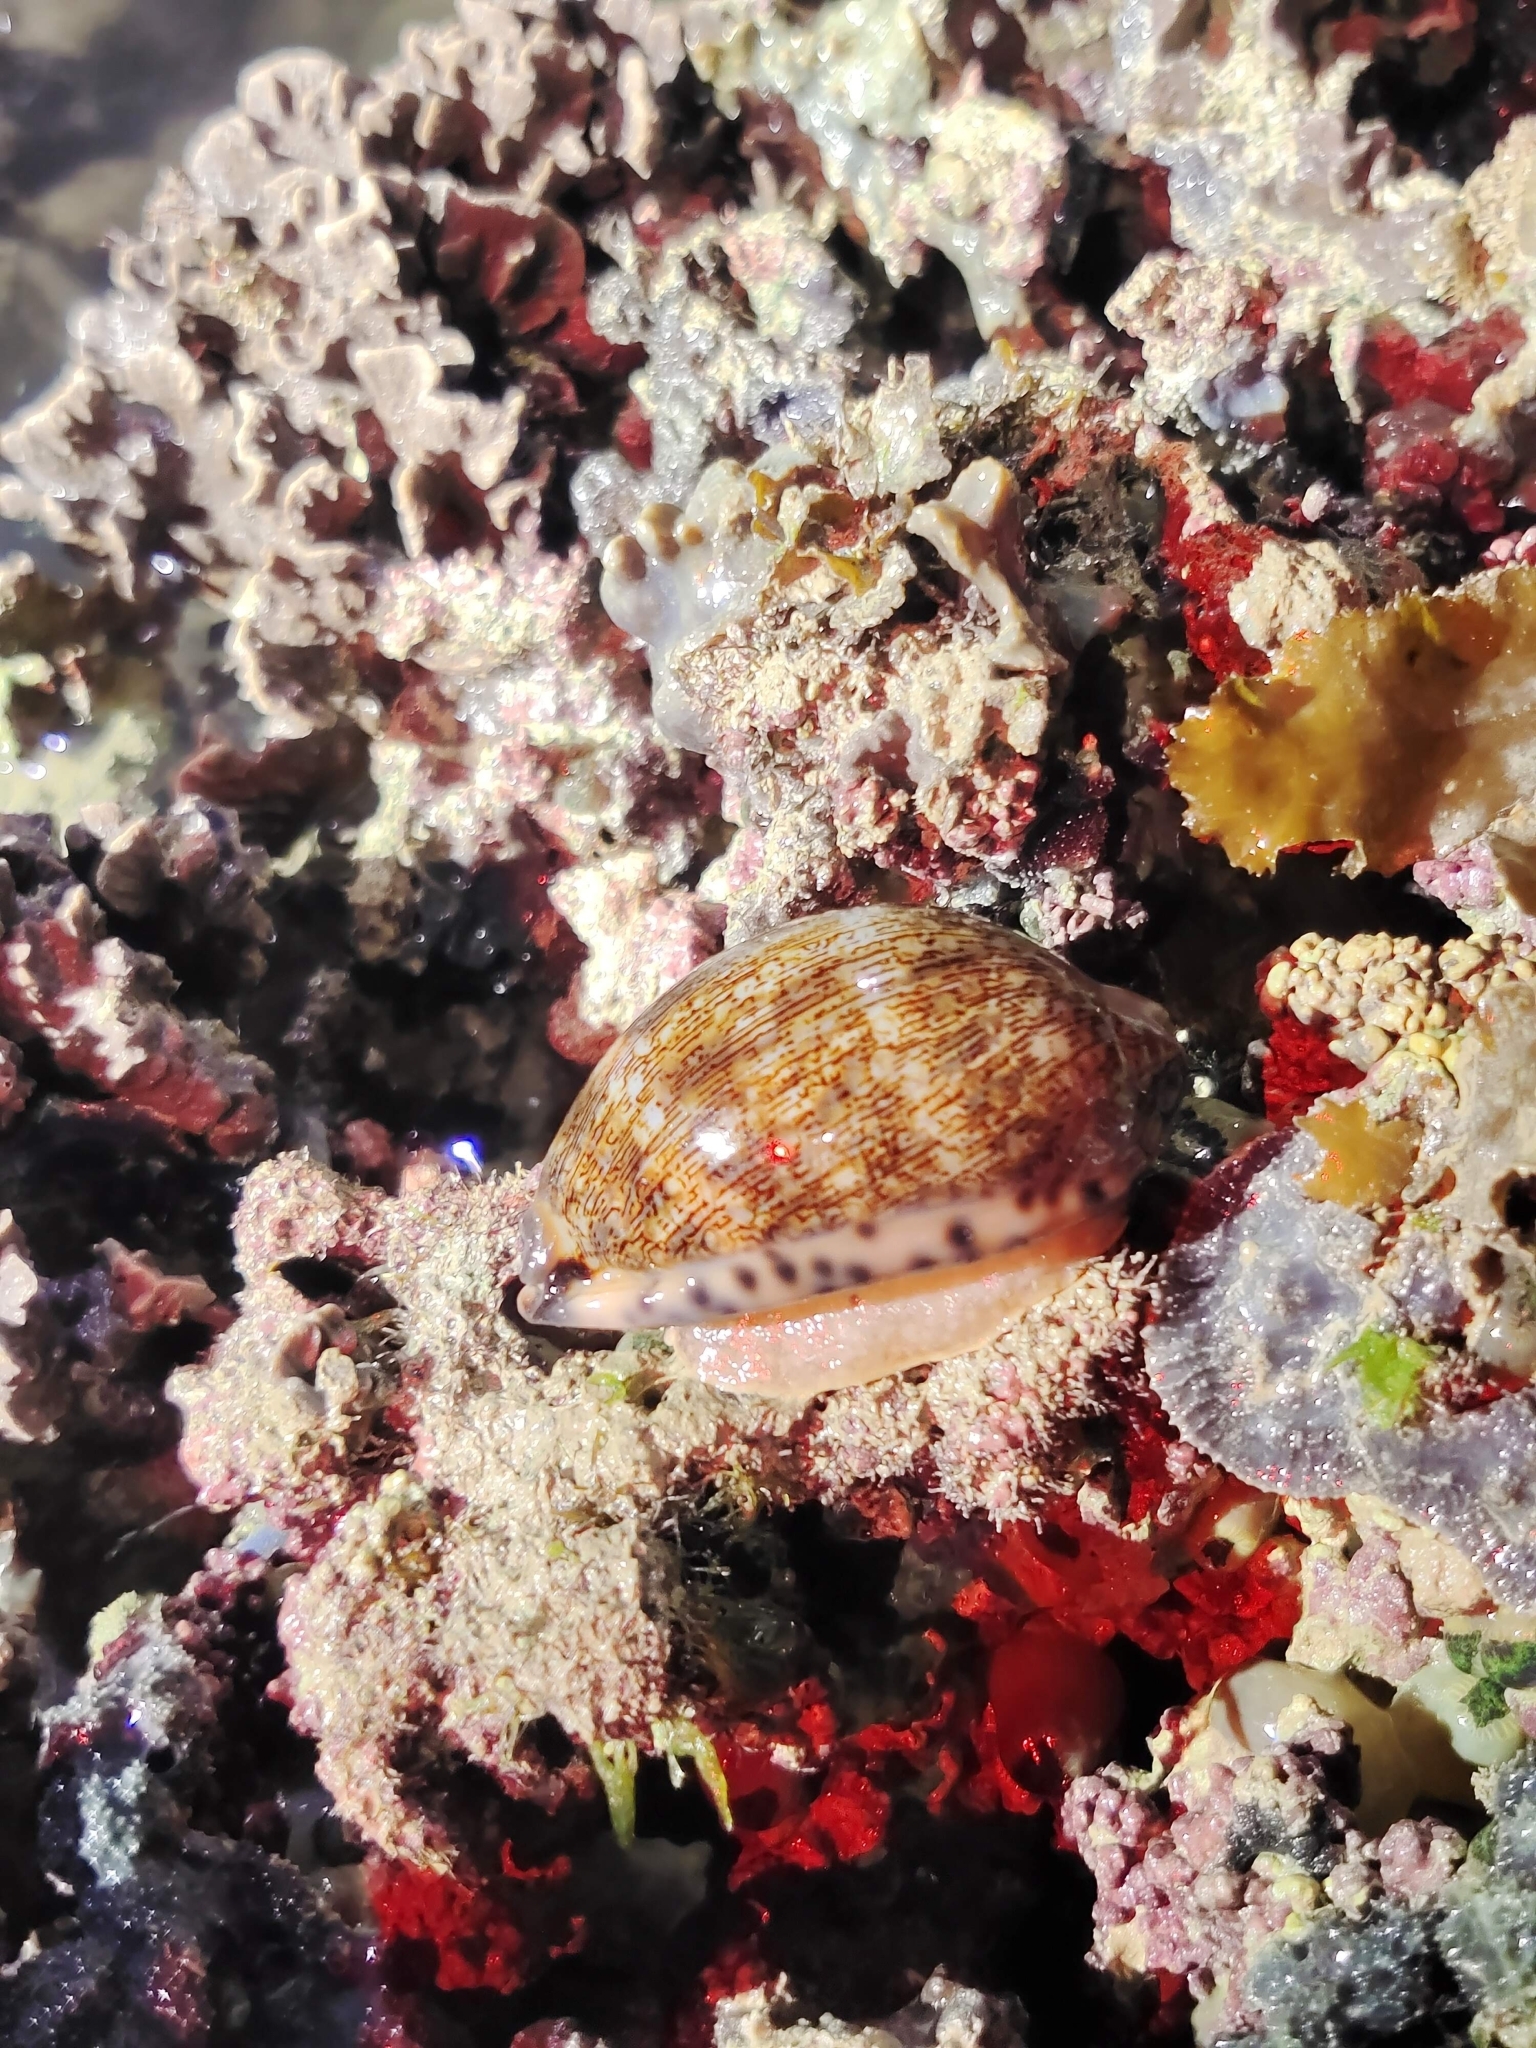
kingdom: Animalia
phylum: Mollusca
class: Gastropoda
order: Littorinimorpha
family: Cypraeidae
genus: Mauritia
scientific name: Mauritia arabica
